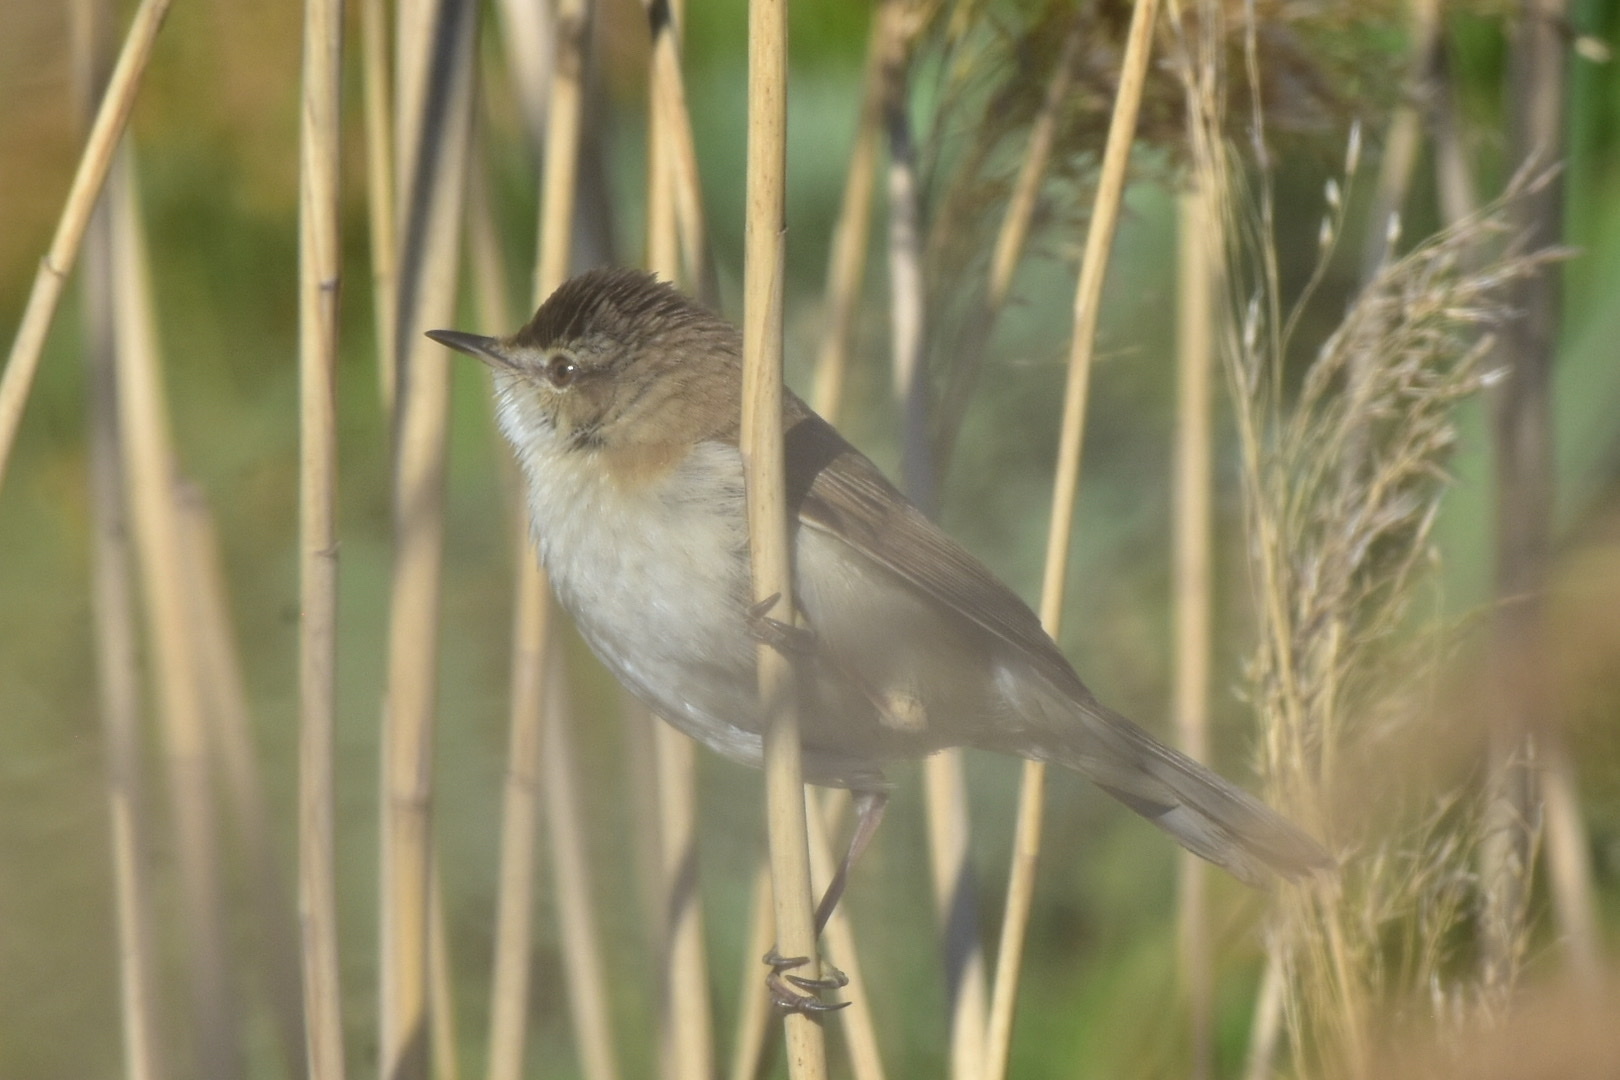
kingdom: Animalia
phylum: Chordata
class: Aves
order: Passeriformes
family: Acrocephalidae
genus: Acrocephalus
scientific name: Acrocephalus agricola
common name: Paddyfield warbler
